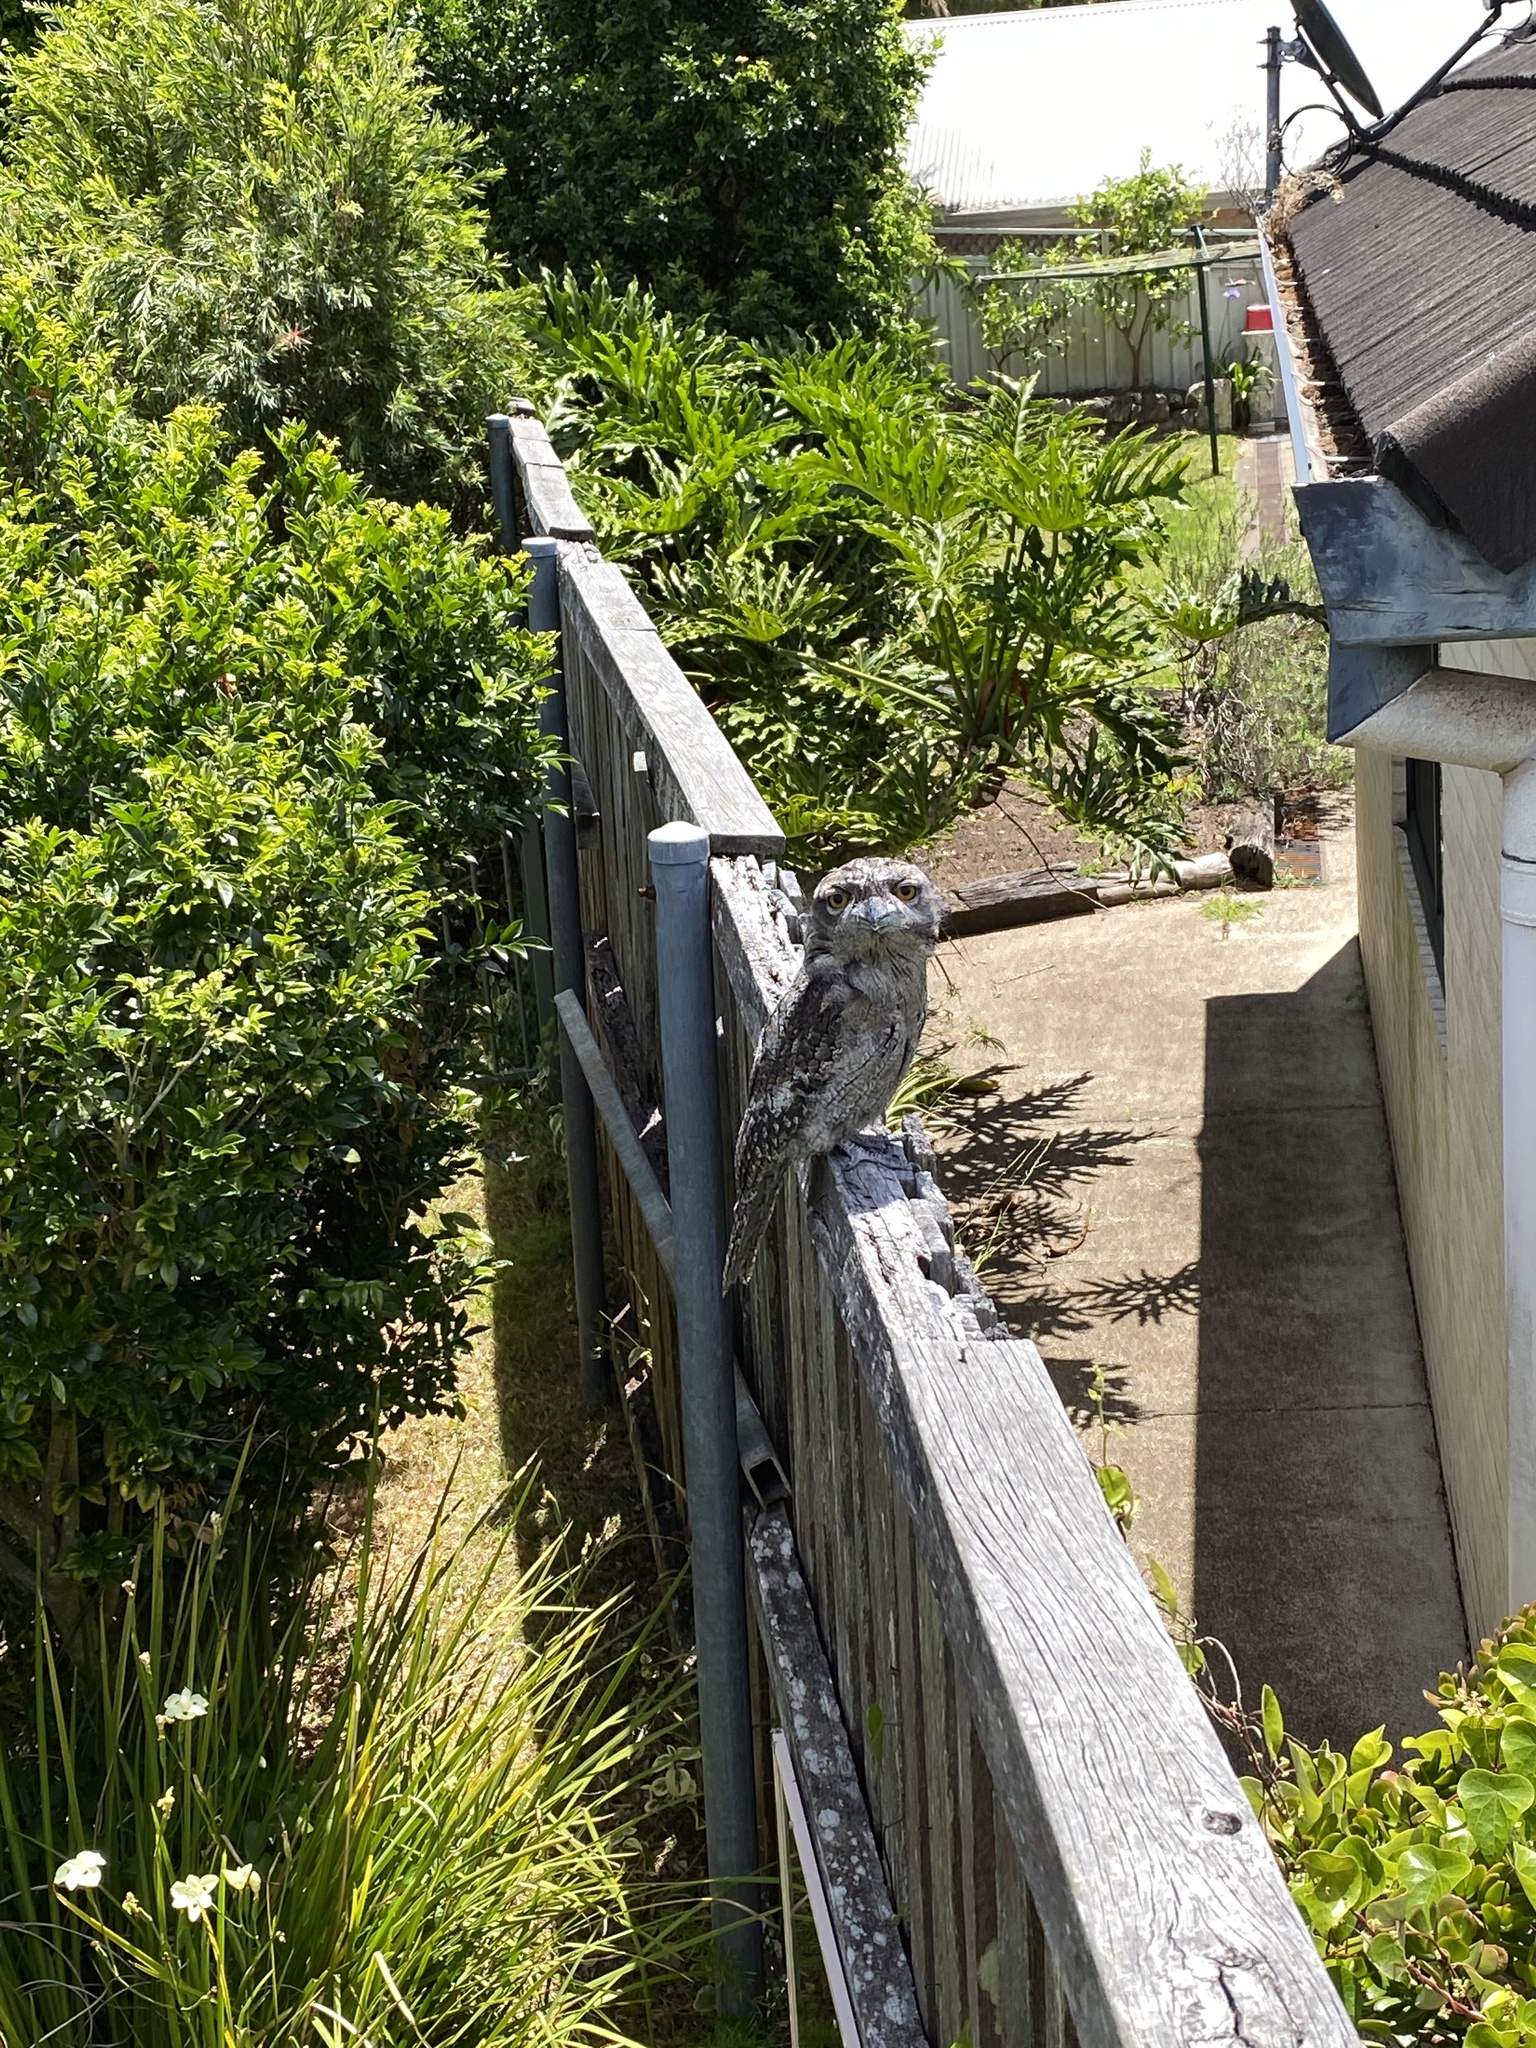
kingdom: Animalia
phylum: Chordata
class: Aves
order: Caprimulgiformes
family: Podargidae
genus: Podargus
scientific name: Podargus strigoides
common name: Tawny frogmouth
